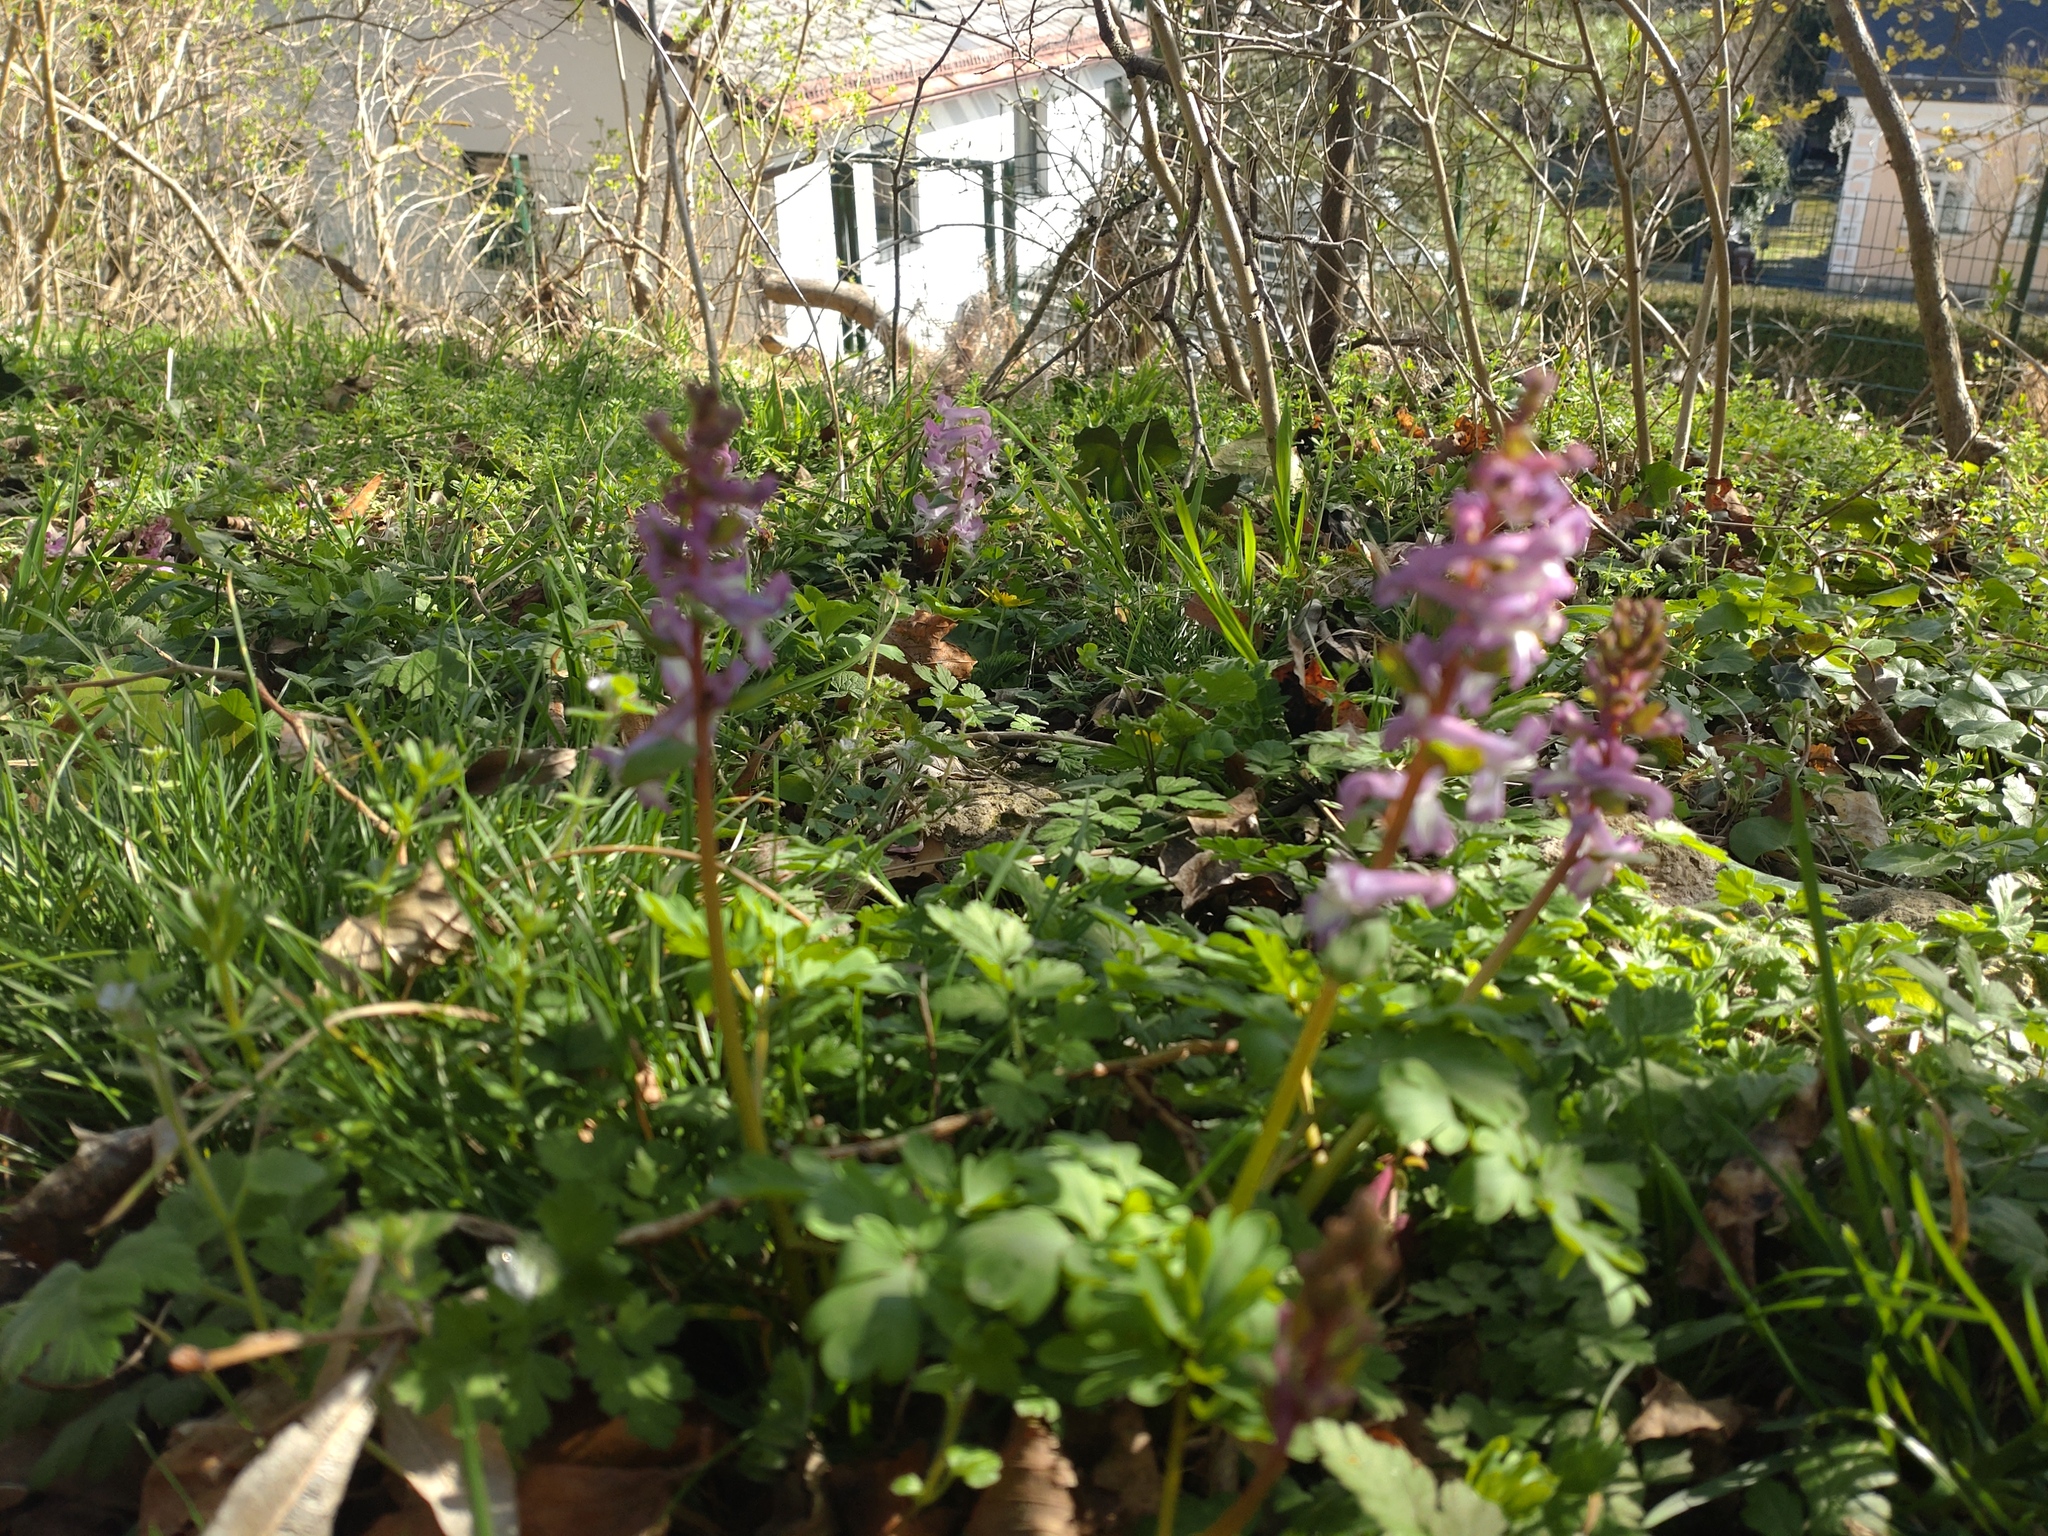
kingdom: Plantae
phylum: Tracheophyta
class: Magnoliopsida
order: Ranunculales
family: Papaveraceae
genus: Corydalis
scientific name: Corydalis cava
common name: Hollowroot
